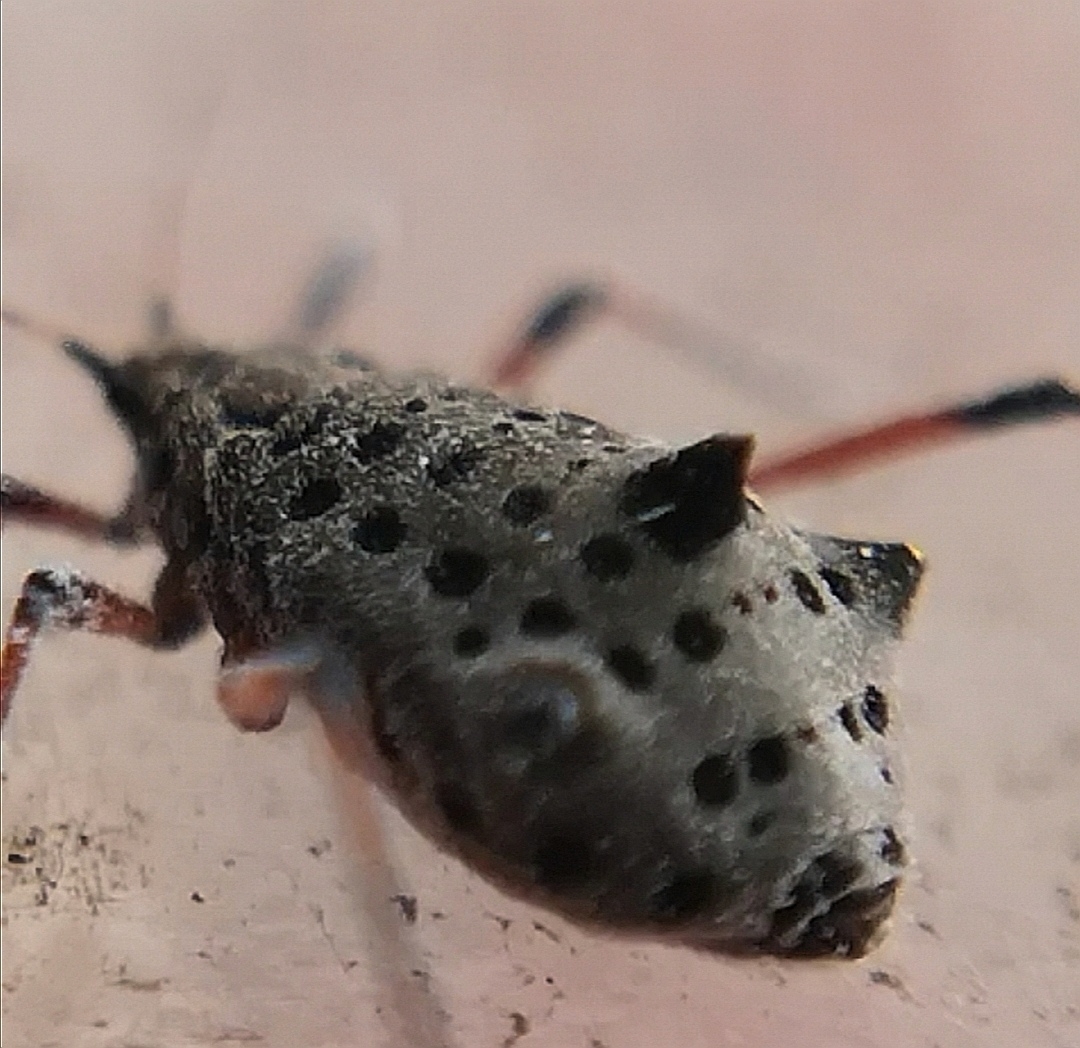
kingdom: Animalia
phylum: Arthropoda
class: Insecta
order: Hemiptera
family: Aphididae
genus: Tuberolachnus
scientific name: Tuberolachnus salignus
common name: Giant willow aphid
